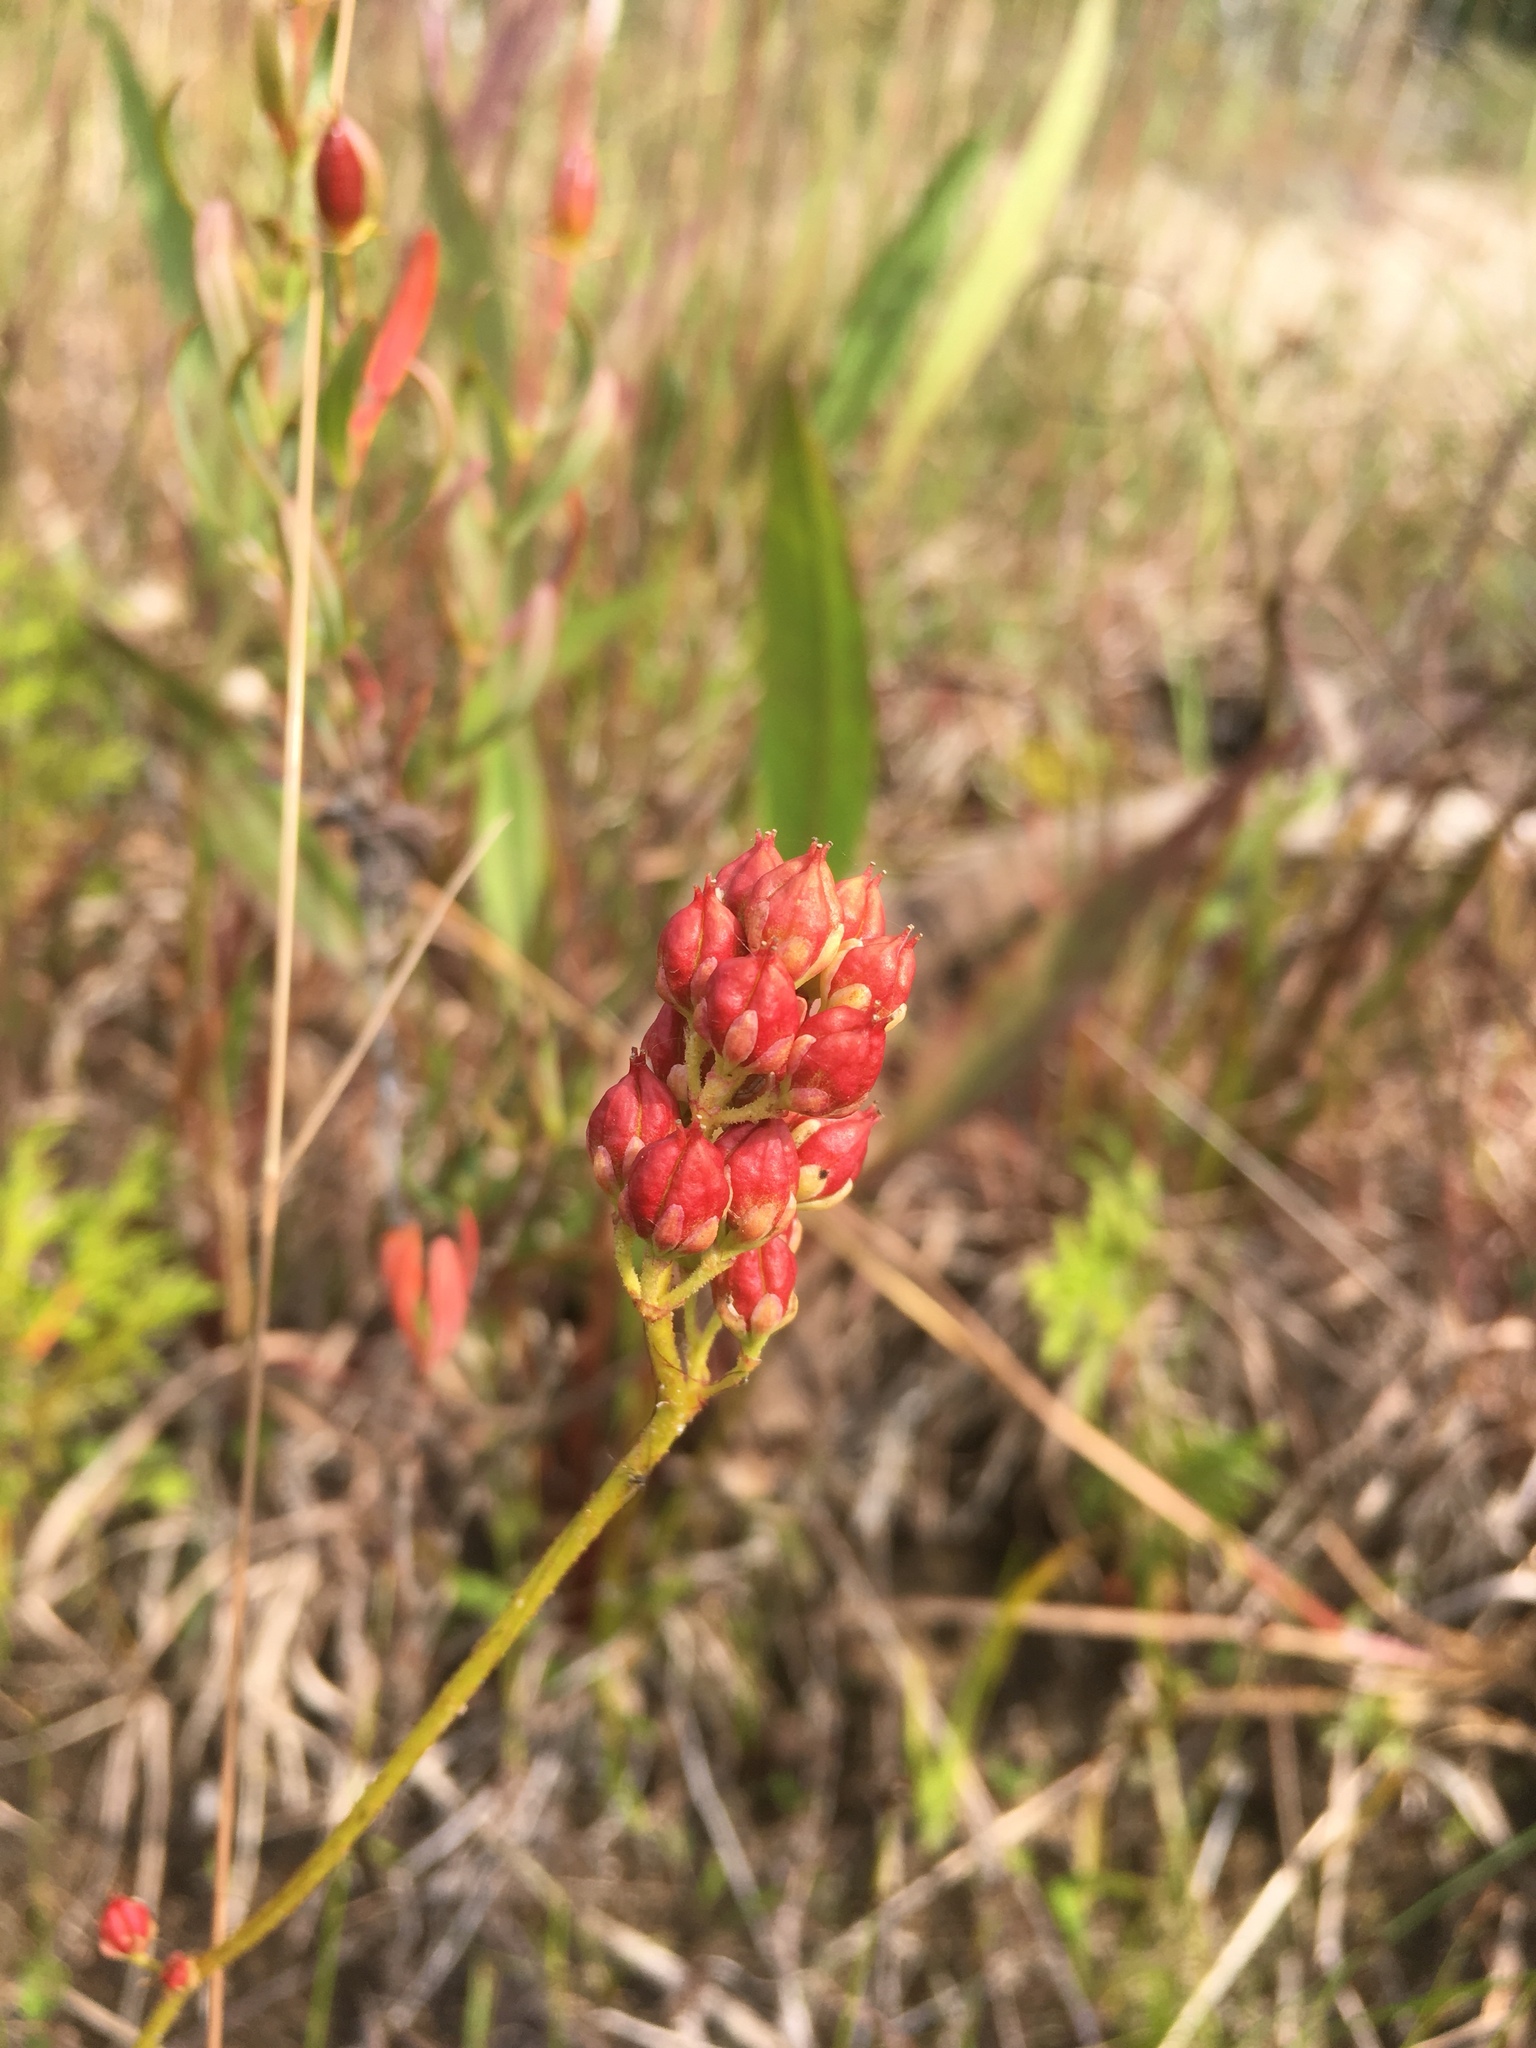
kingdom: Plantae
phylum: Tracheophyta
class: Liliopsida
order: Alismatales
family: Tofieldiaceae
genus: Triantha
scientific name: Triantha glutinosa
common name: Glutinous tofieldia
